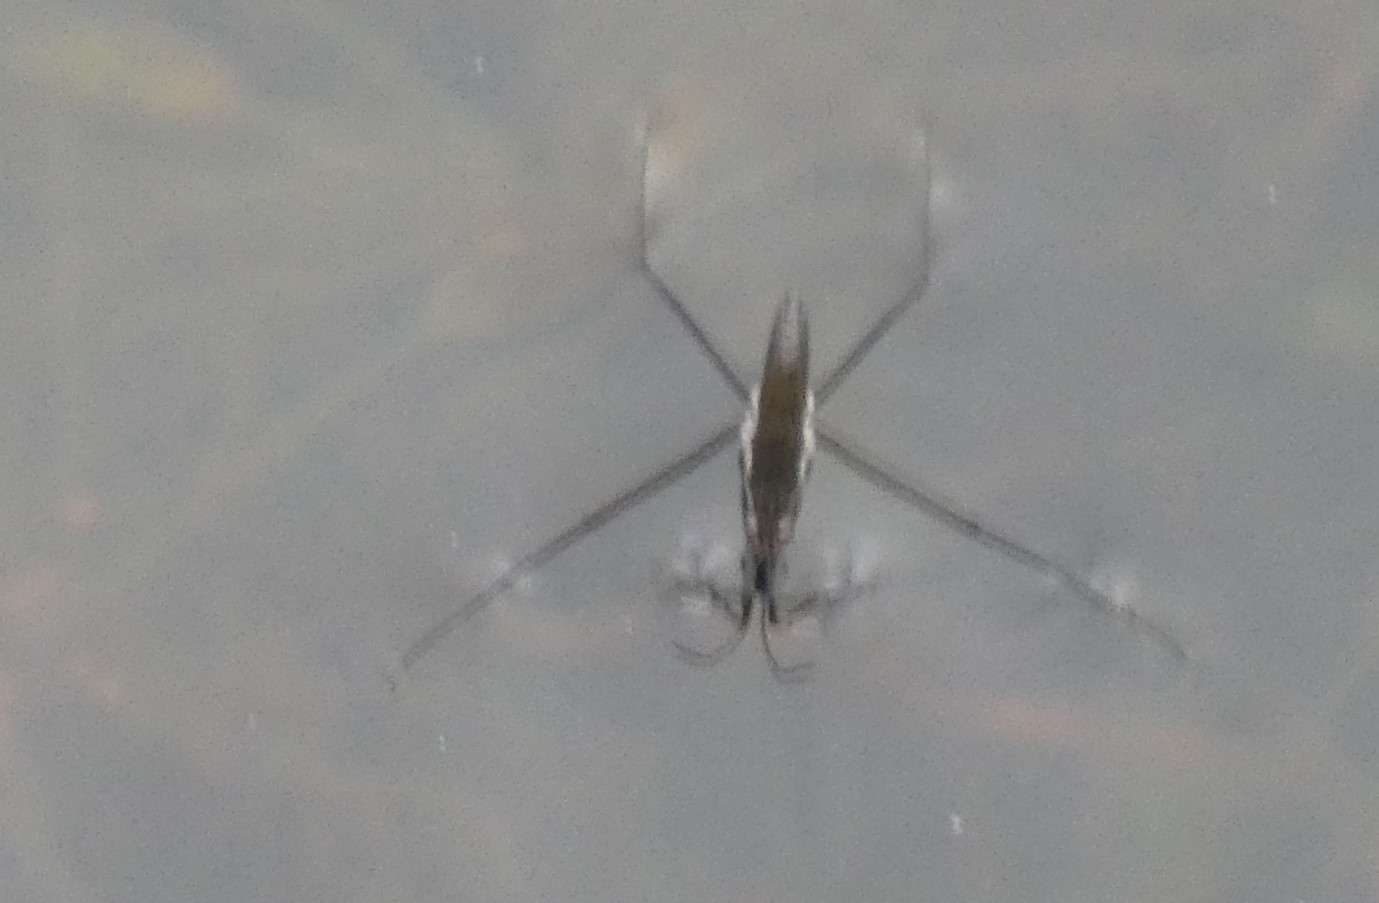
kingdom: Animalia
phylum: Arthropoda
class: Insecta
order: Hemiptera
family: Gerridae
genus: Gerris
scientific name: Gerris
